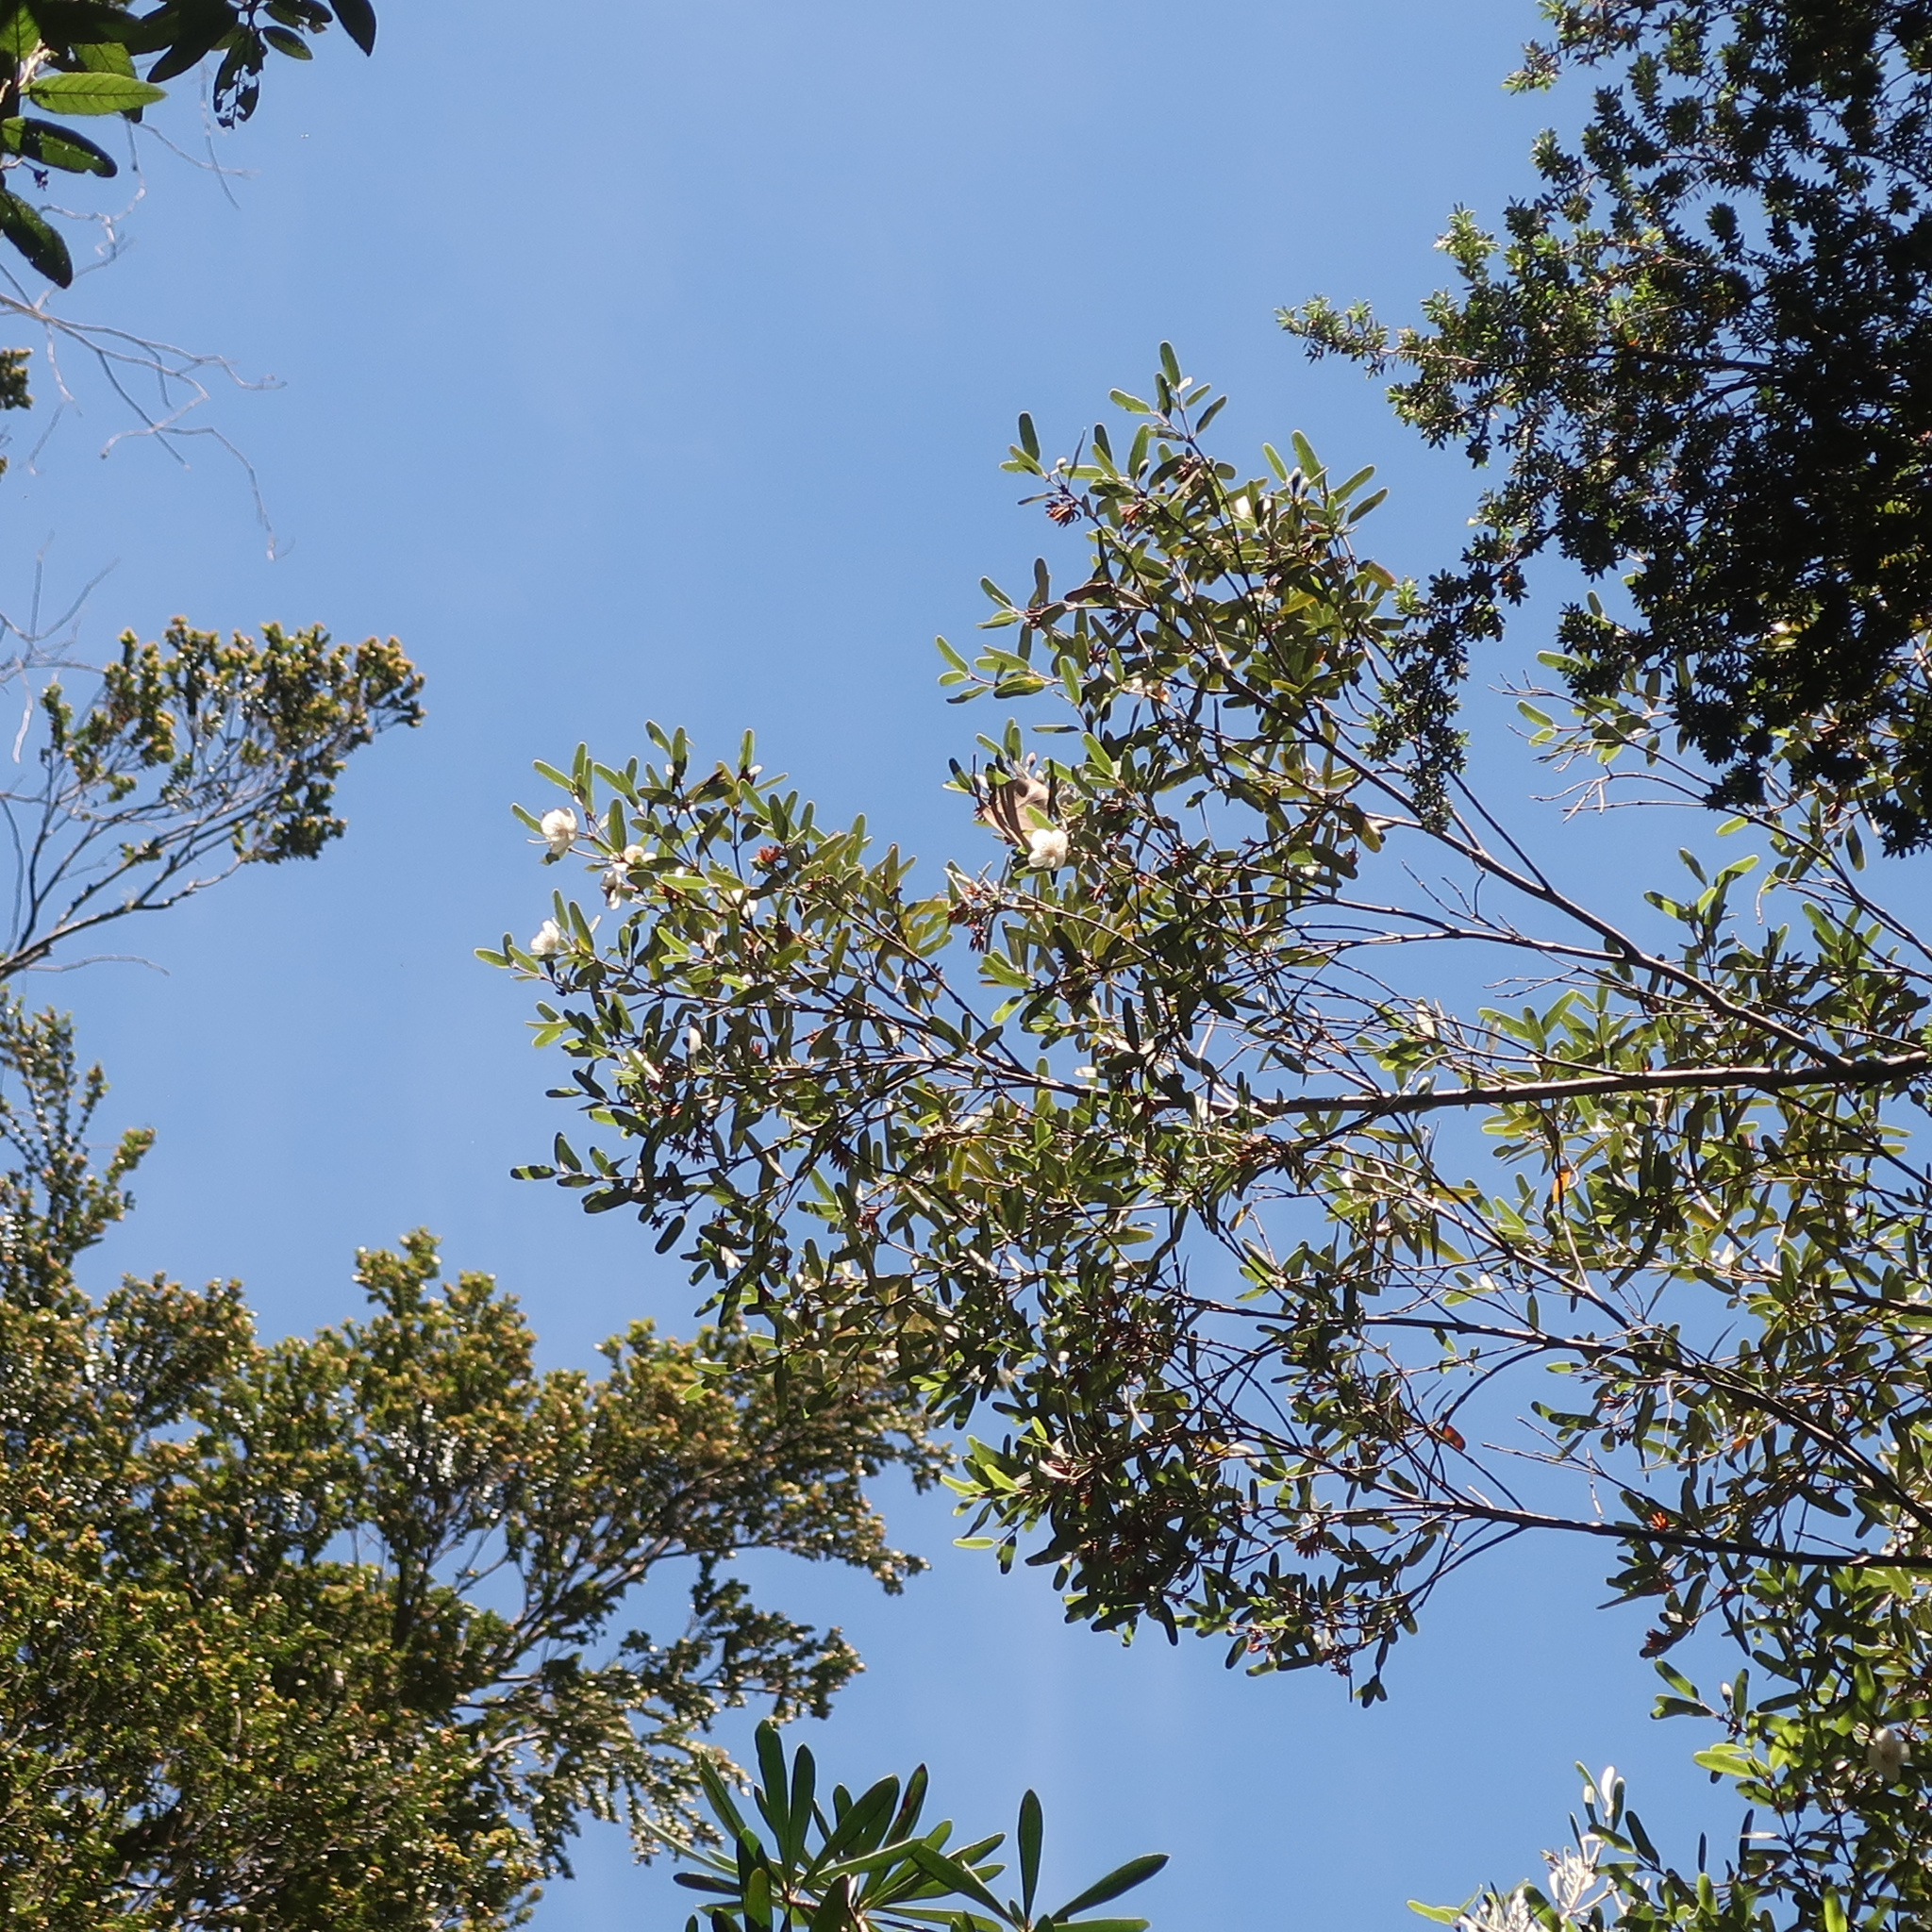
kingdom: Plantae
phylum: Tracheophyta
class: Magnoliopsida
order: Oxalidales
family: Cunoniaceae
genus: Eucryphia
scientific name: Eucryphia lucida
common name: Leatherwood
